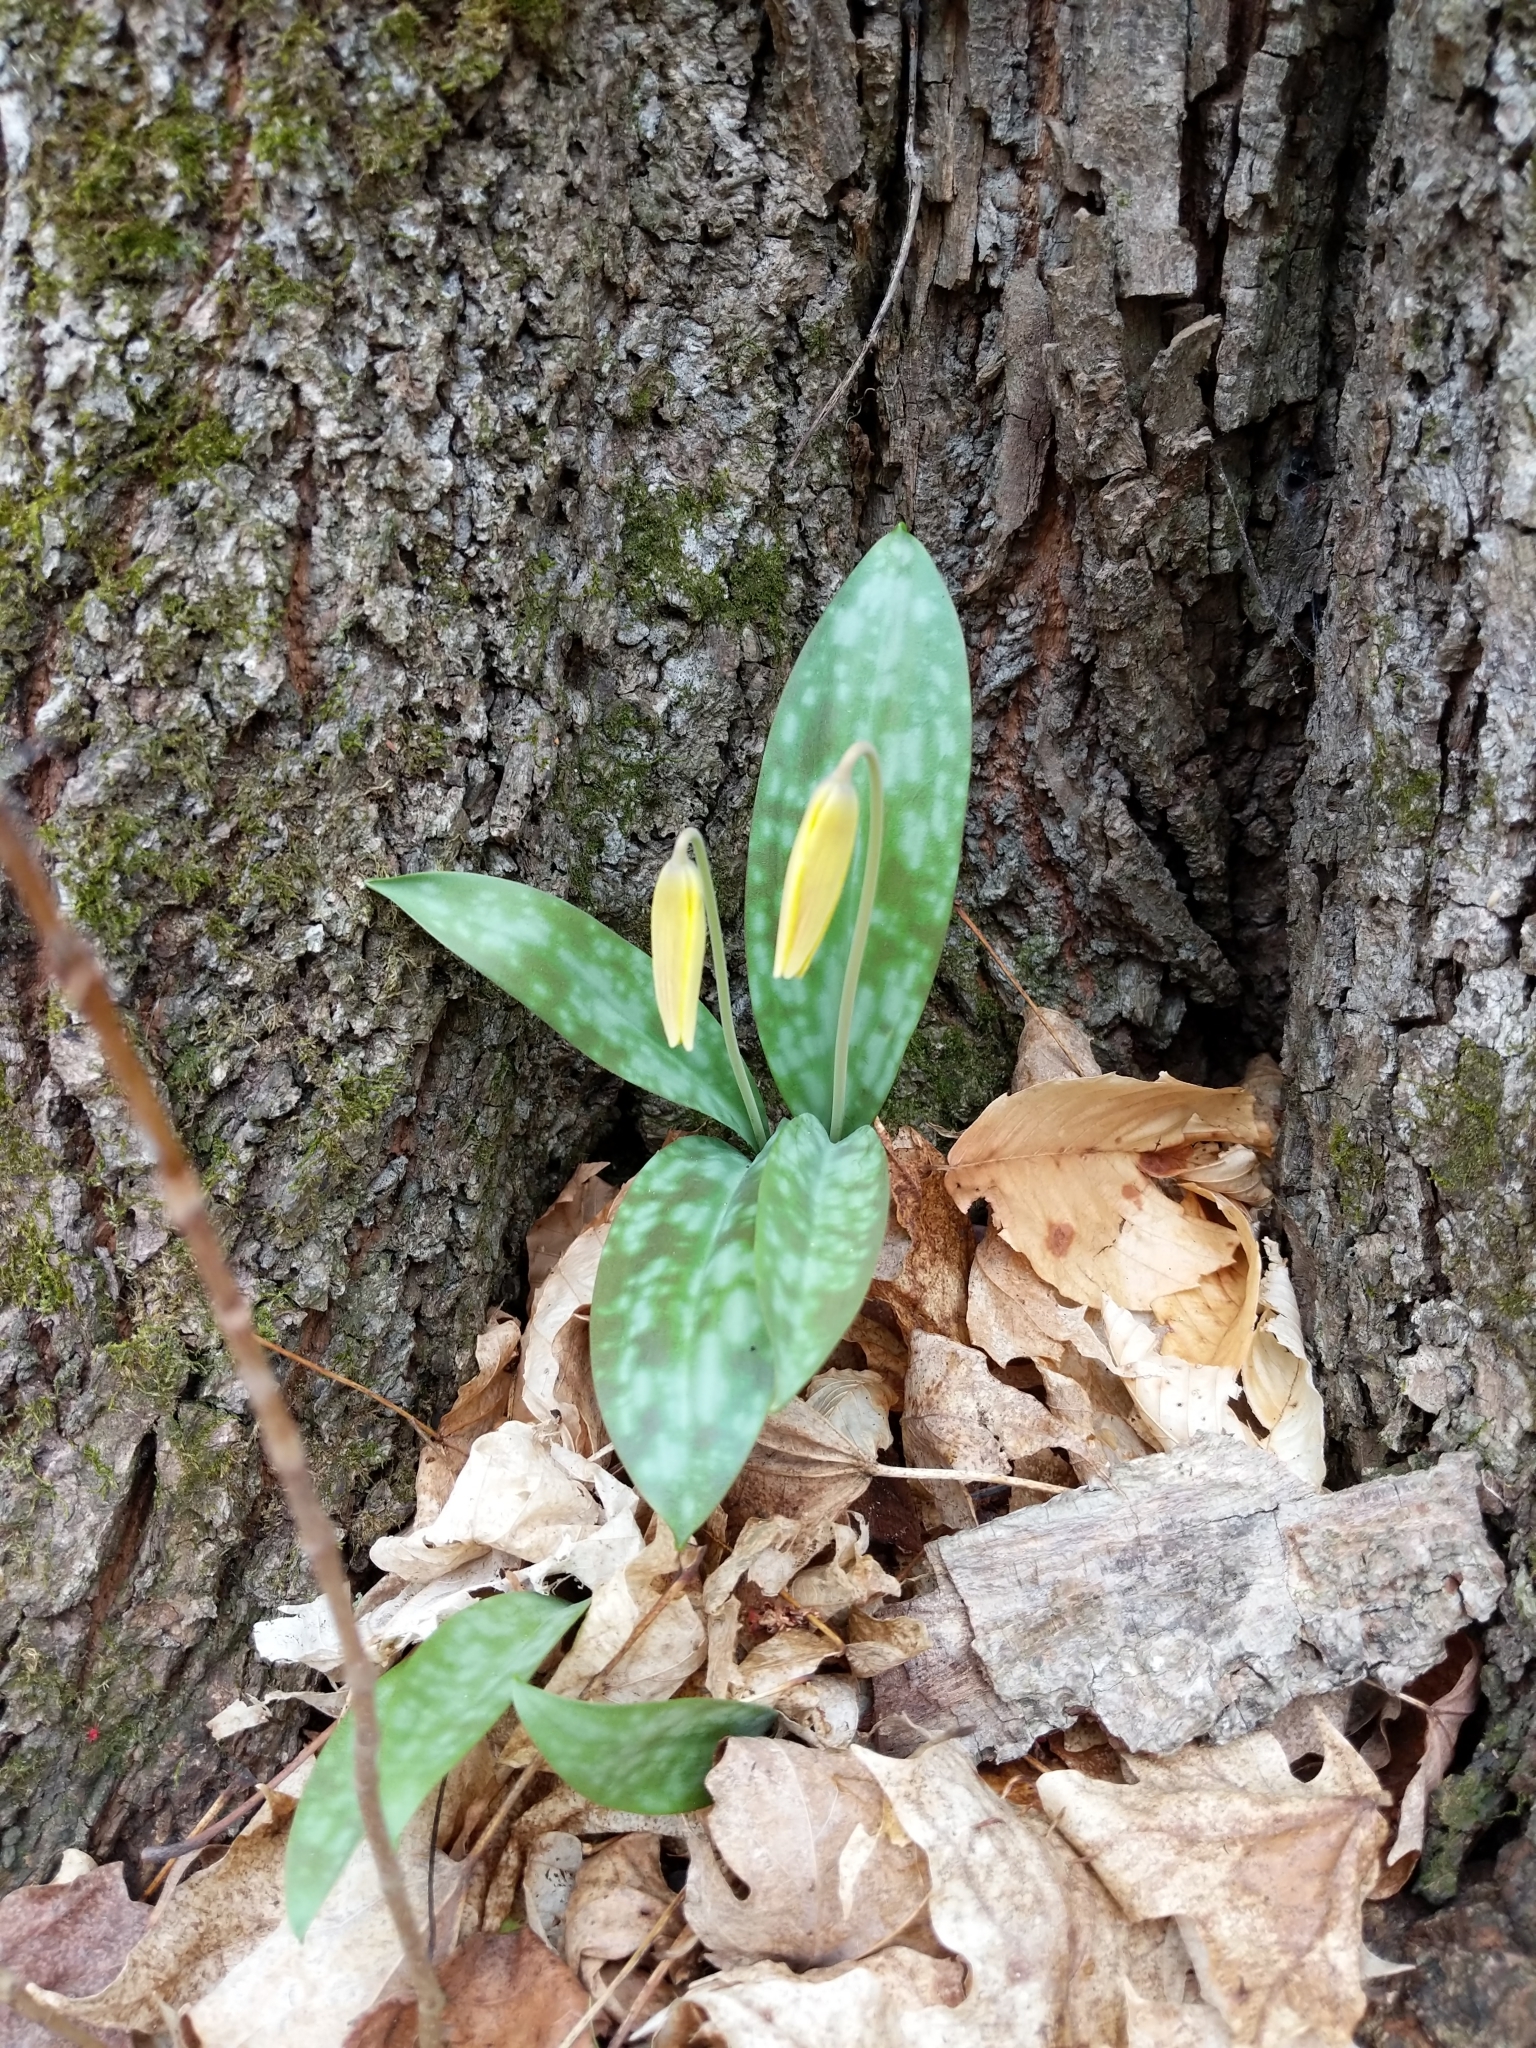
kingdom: Plantae
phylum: Tracheophyta
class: Liliopsida
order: Liliales
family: Liliaceae
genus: Erythronium
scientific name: Erythronium americanum
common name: Yellow adder's-tongue
